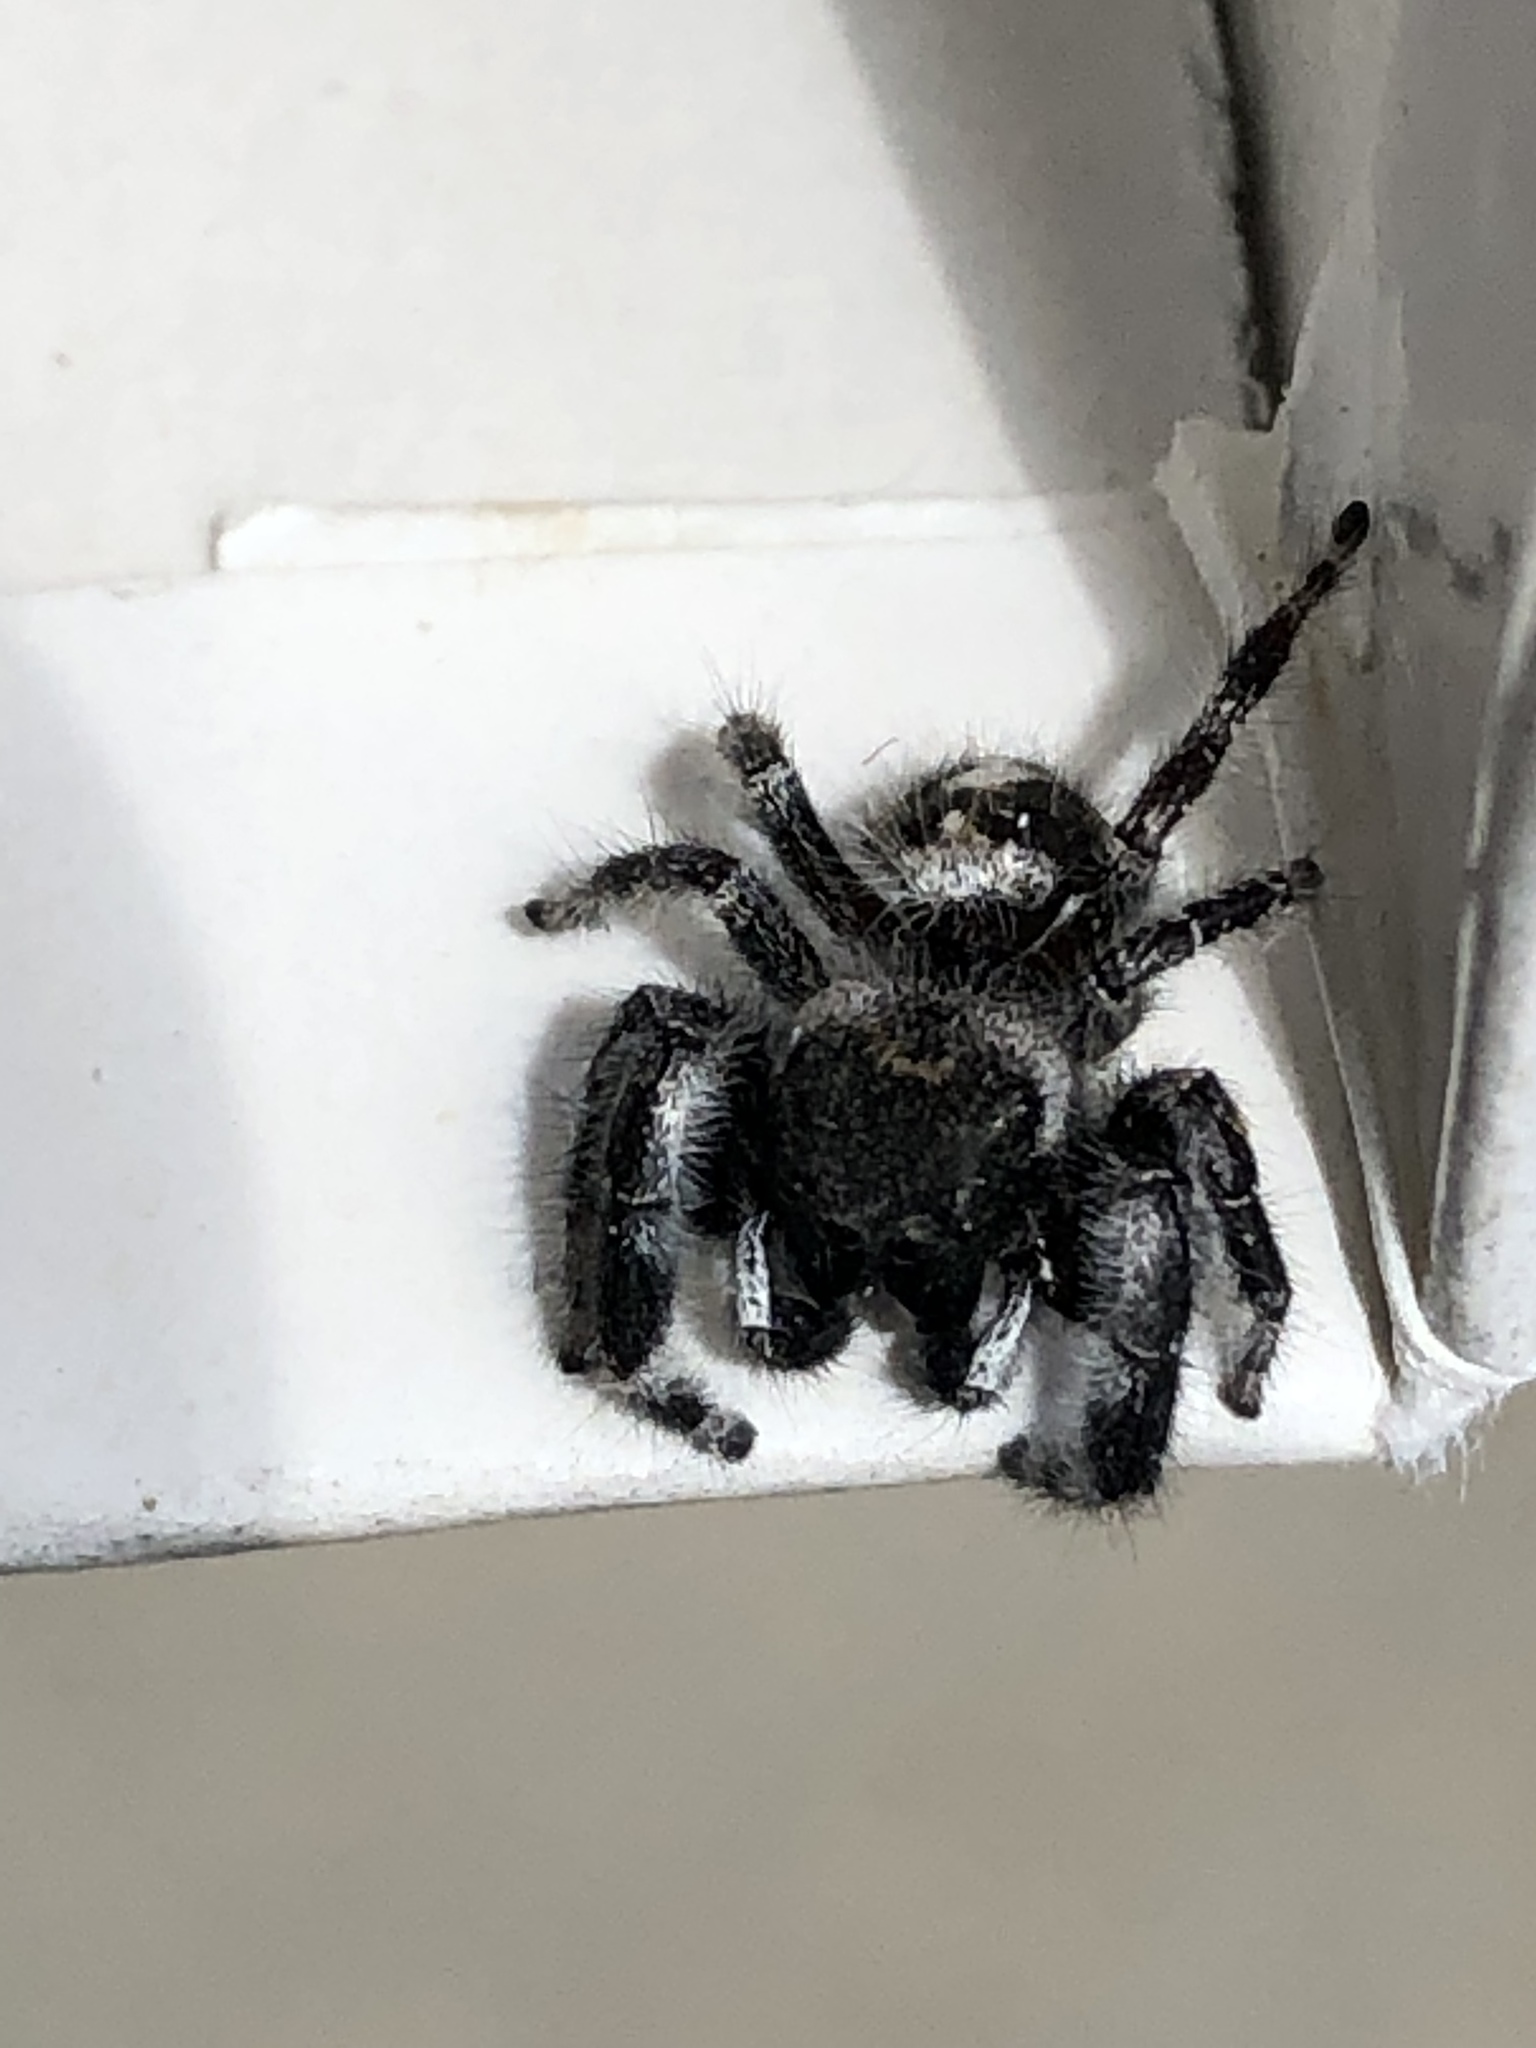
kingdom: Animalia
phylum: Arthropoda
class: Arachnida
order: Araneae
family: Salticidae
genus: Phidippus
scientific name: Phidippus audax
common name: Bold jumper
